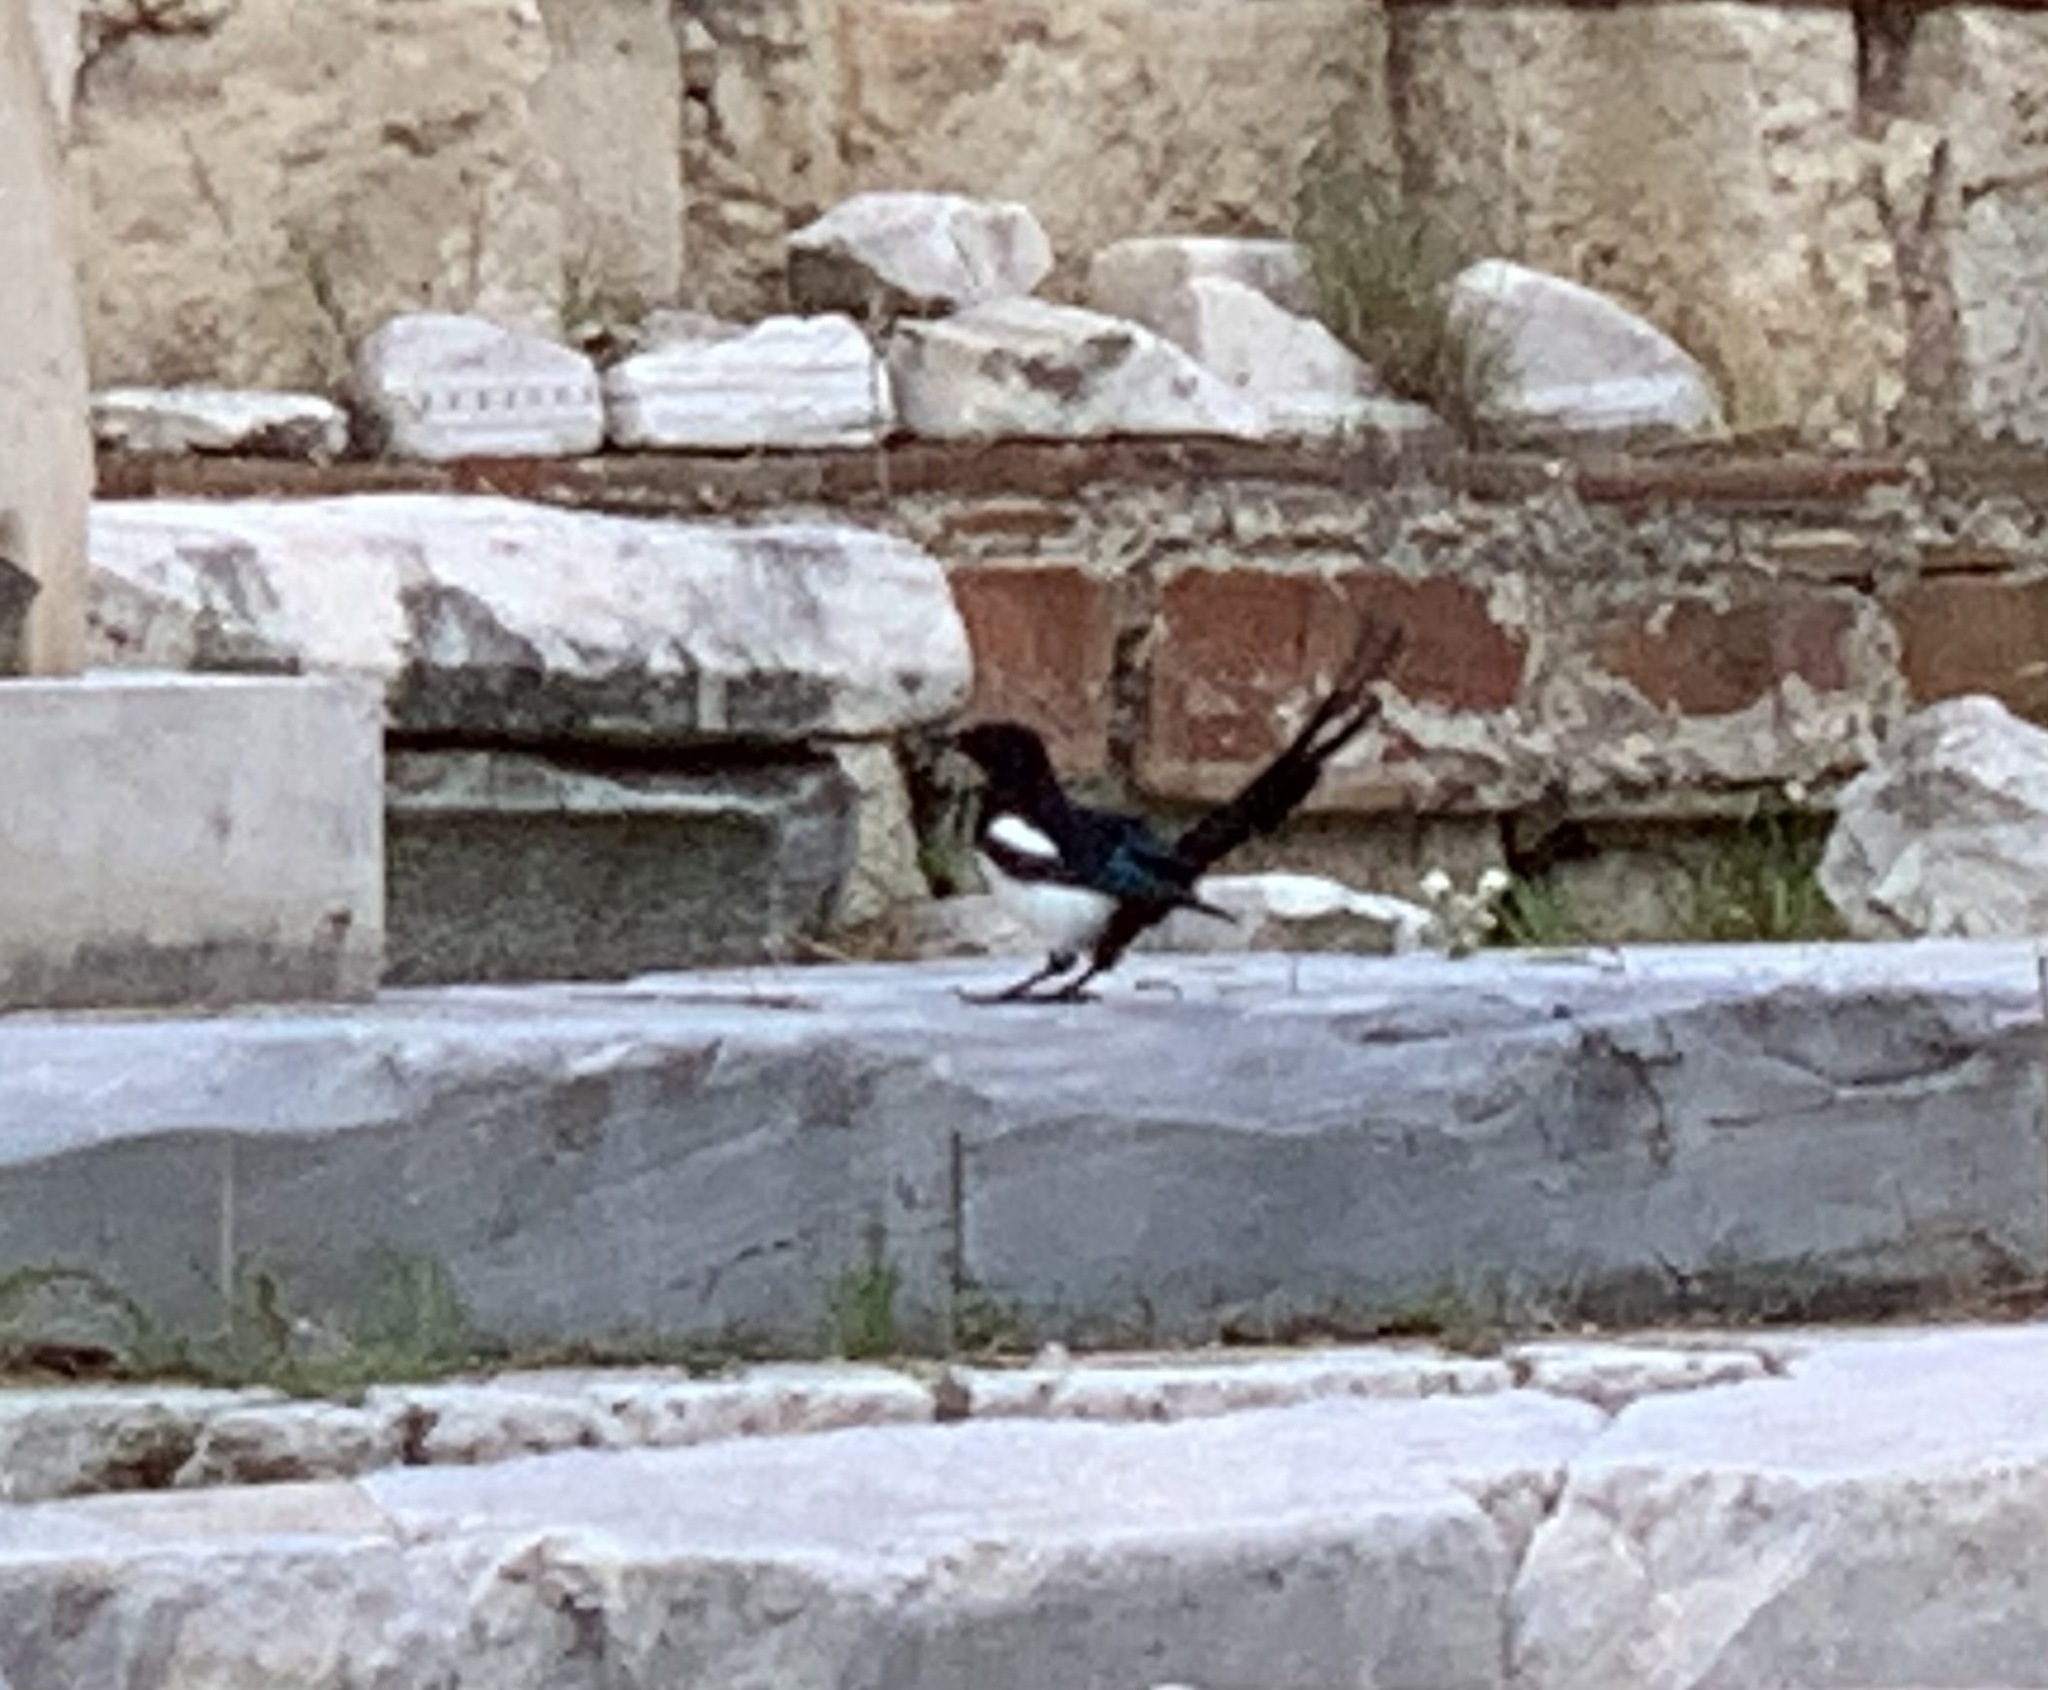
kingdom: Animalia
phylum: Chordata
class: Aves
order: Passeriformes
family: Corvidae
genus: Pica
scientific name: Pica pica
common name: Eurasian magpie
